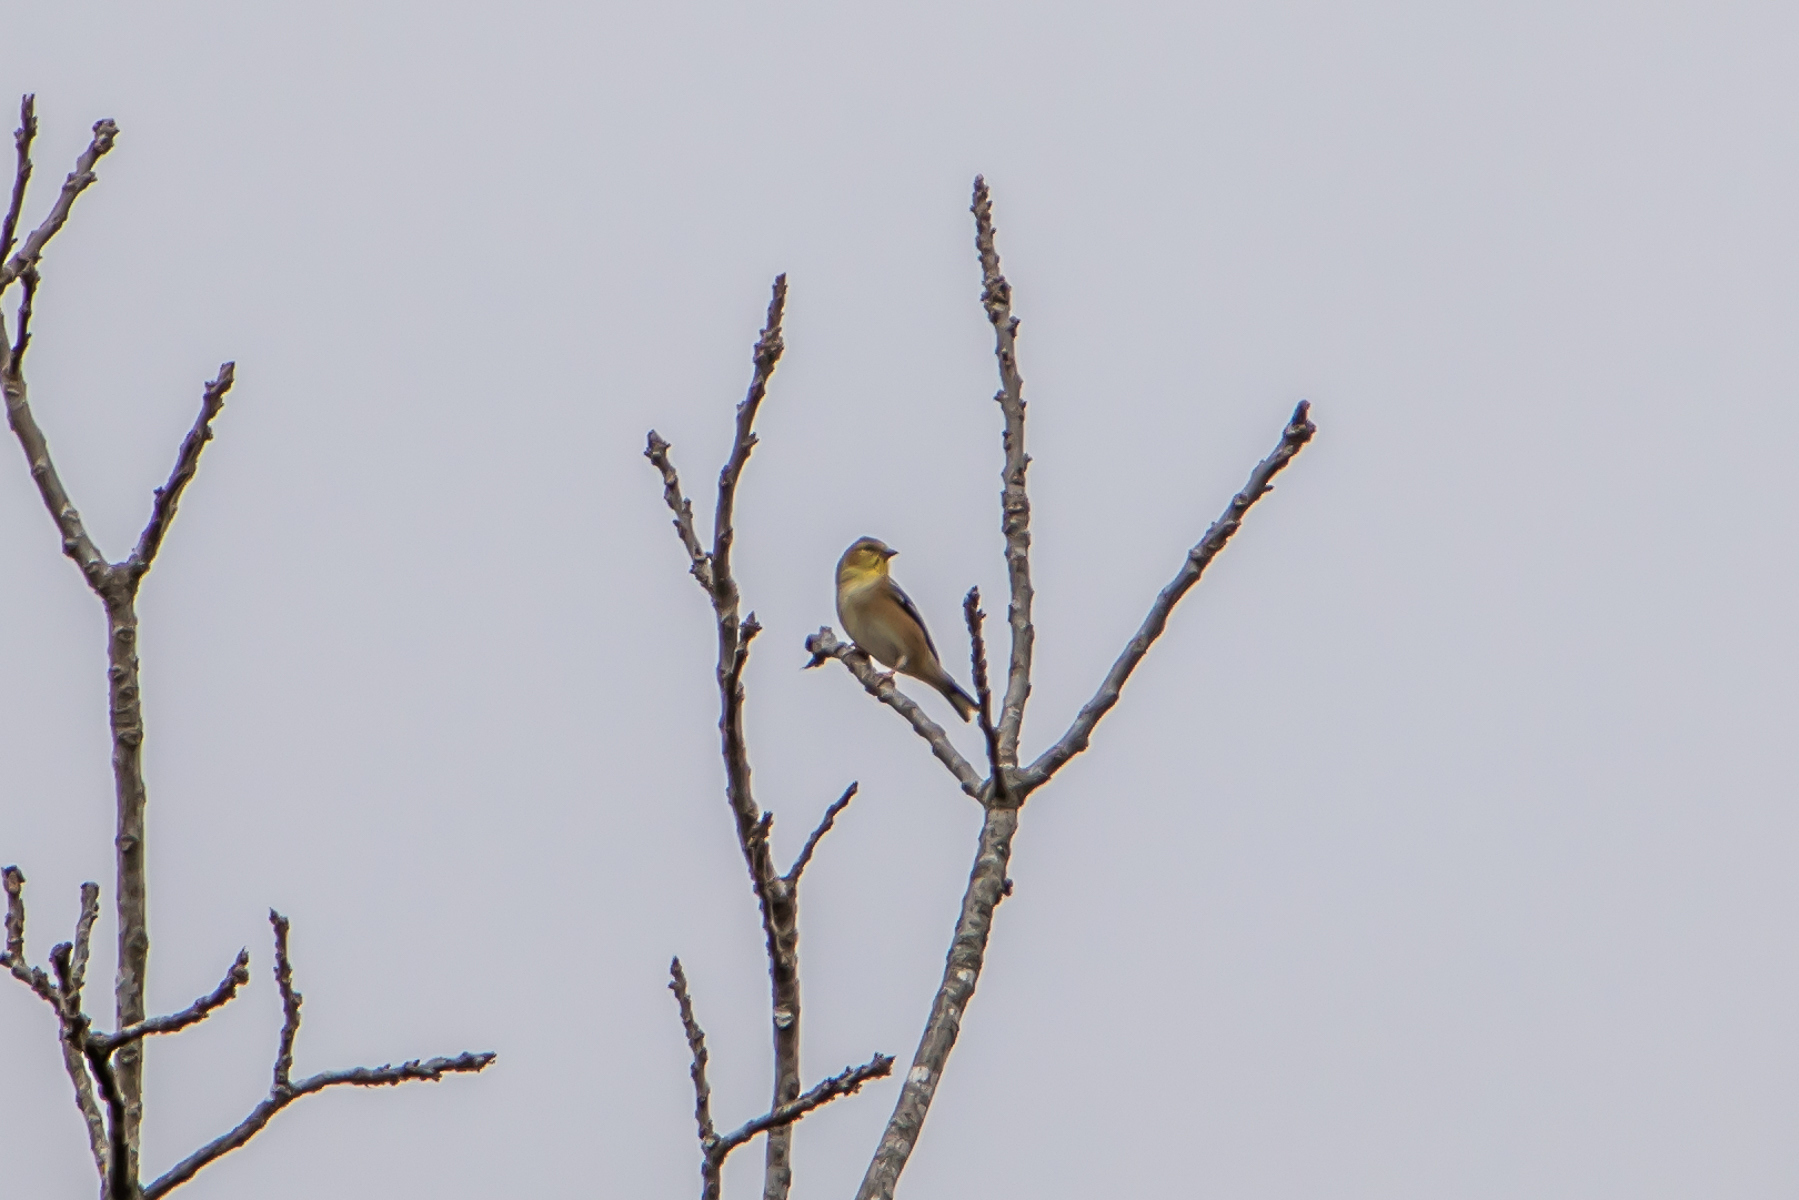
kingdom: Animalia
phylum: Chordata
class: Aves
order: Passeriformes
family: Fringillidae
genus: Spinus
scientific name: Spinus tristis
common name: American goldfinch
